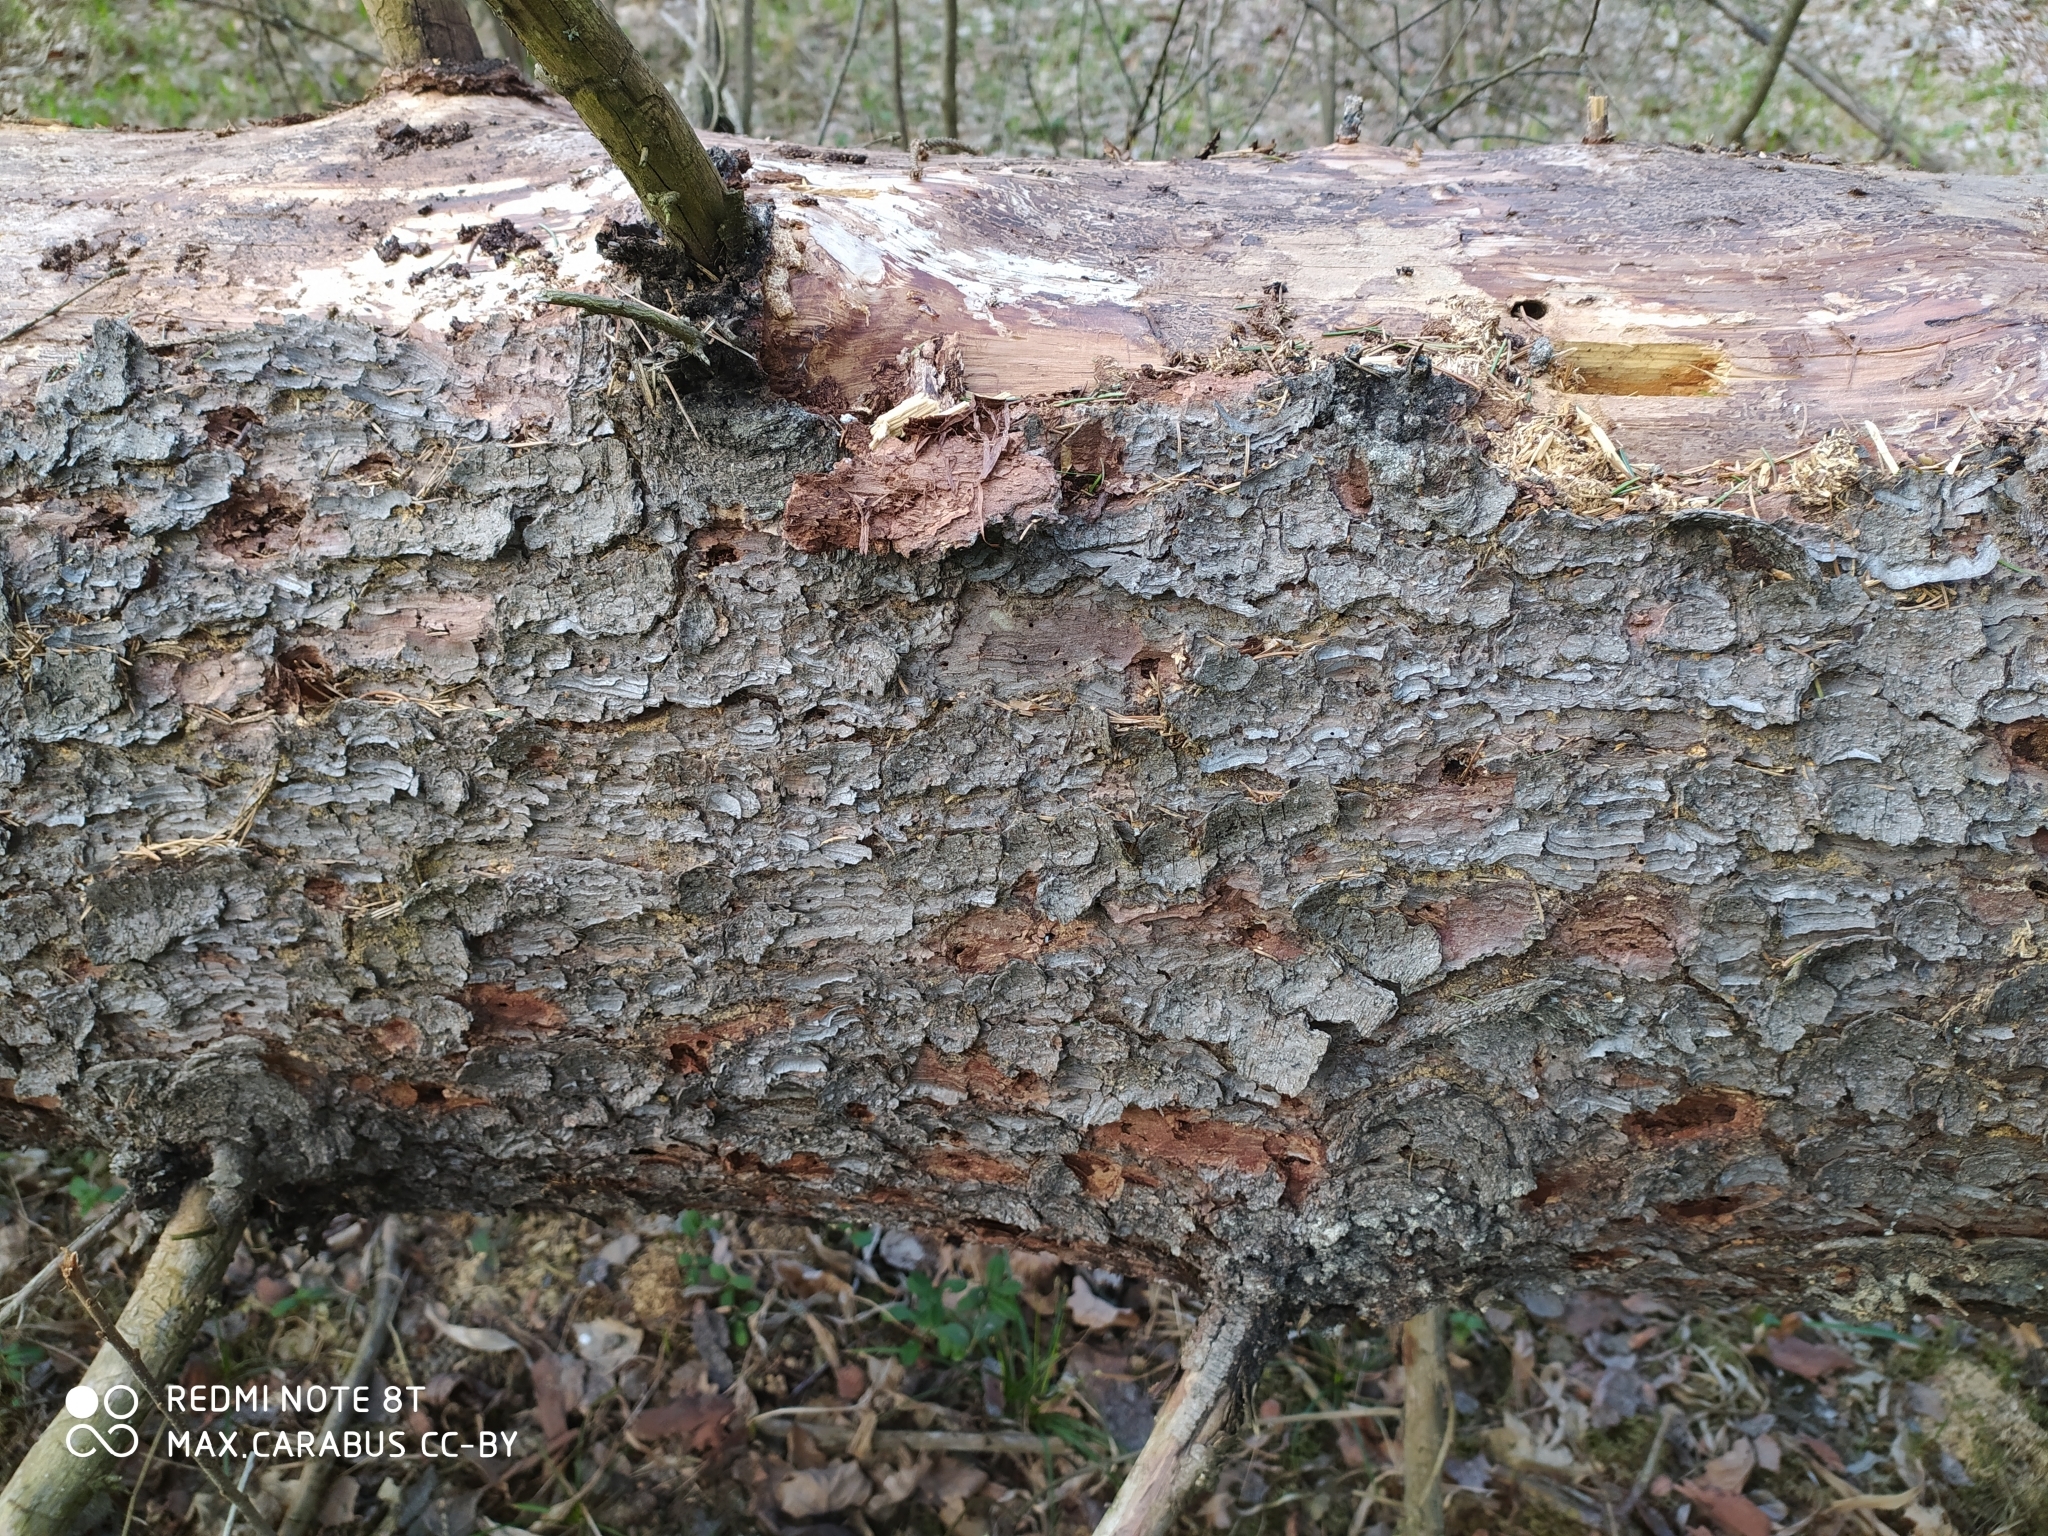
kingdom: Plantae
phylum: Tracheophyta
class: Pinopsida
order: Pinales
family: Pinaceae
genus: Picea
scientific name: Picea abies
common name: Norway spruce
